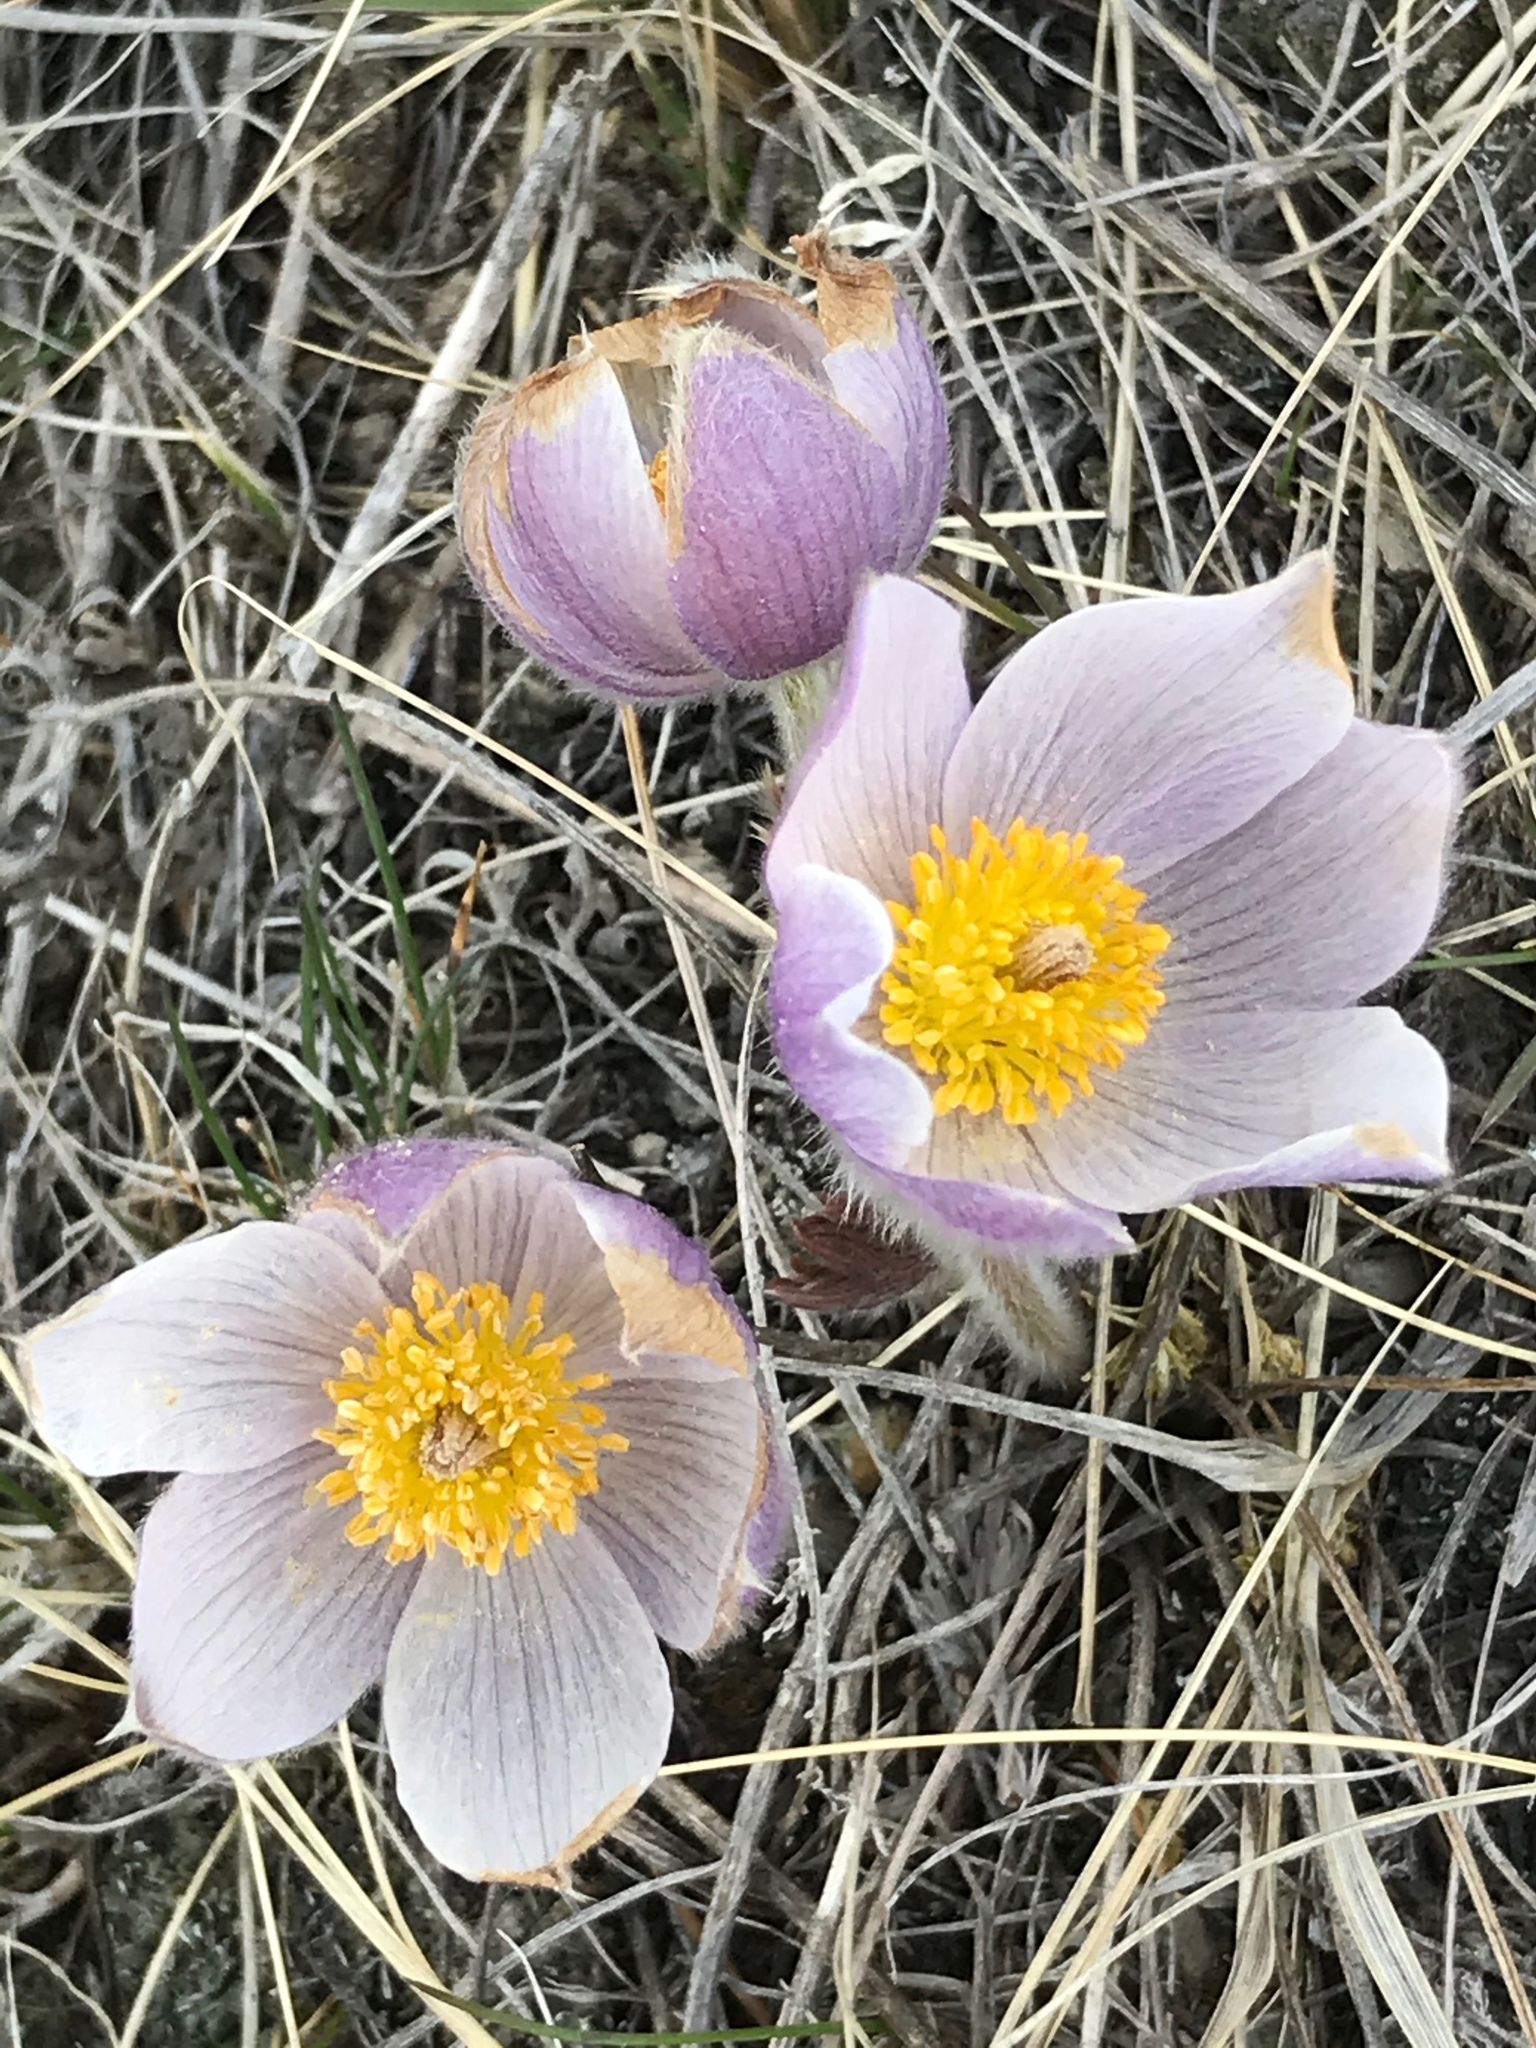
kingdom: Plantae
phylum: Tracheophyta
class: Magnoliopsida
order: Ranunculales
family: Ranunculaceae
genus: Pulsatilla
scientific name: Pulsatilla nuttalliana
